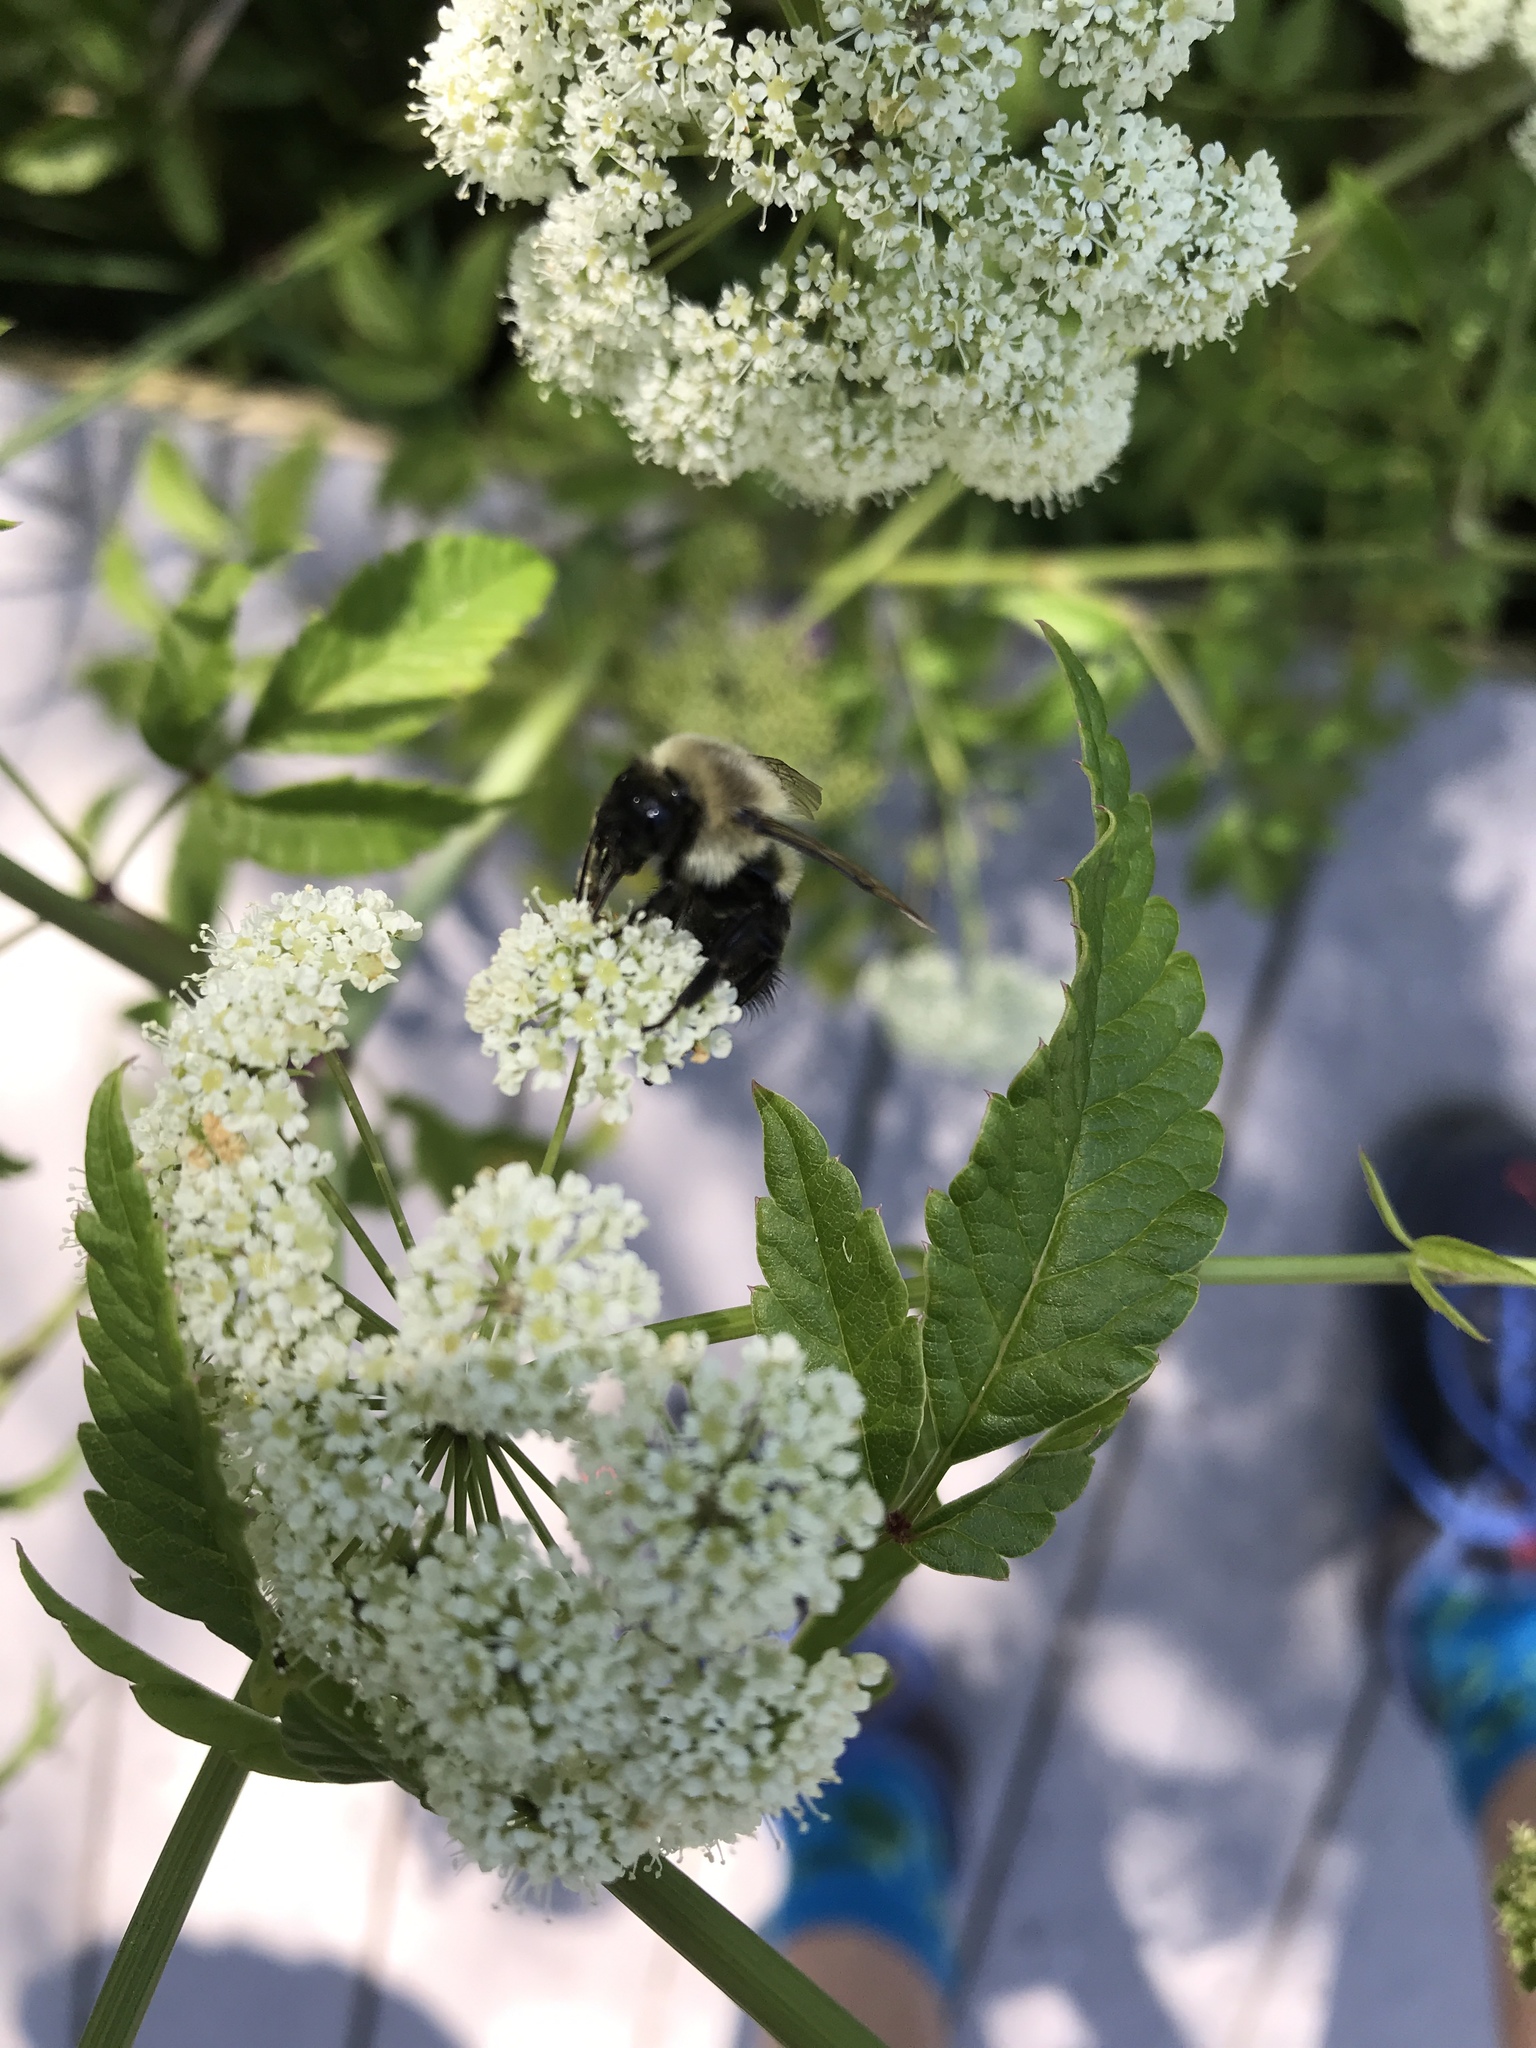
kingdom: Animalia
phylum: Arthropoda
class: Insecta
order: Hymenoptera
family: Apidae
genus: Bombus
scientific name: Bombus impatiens
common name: Common eastern bumble bee
